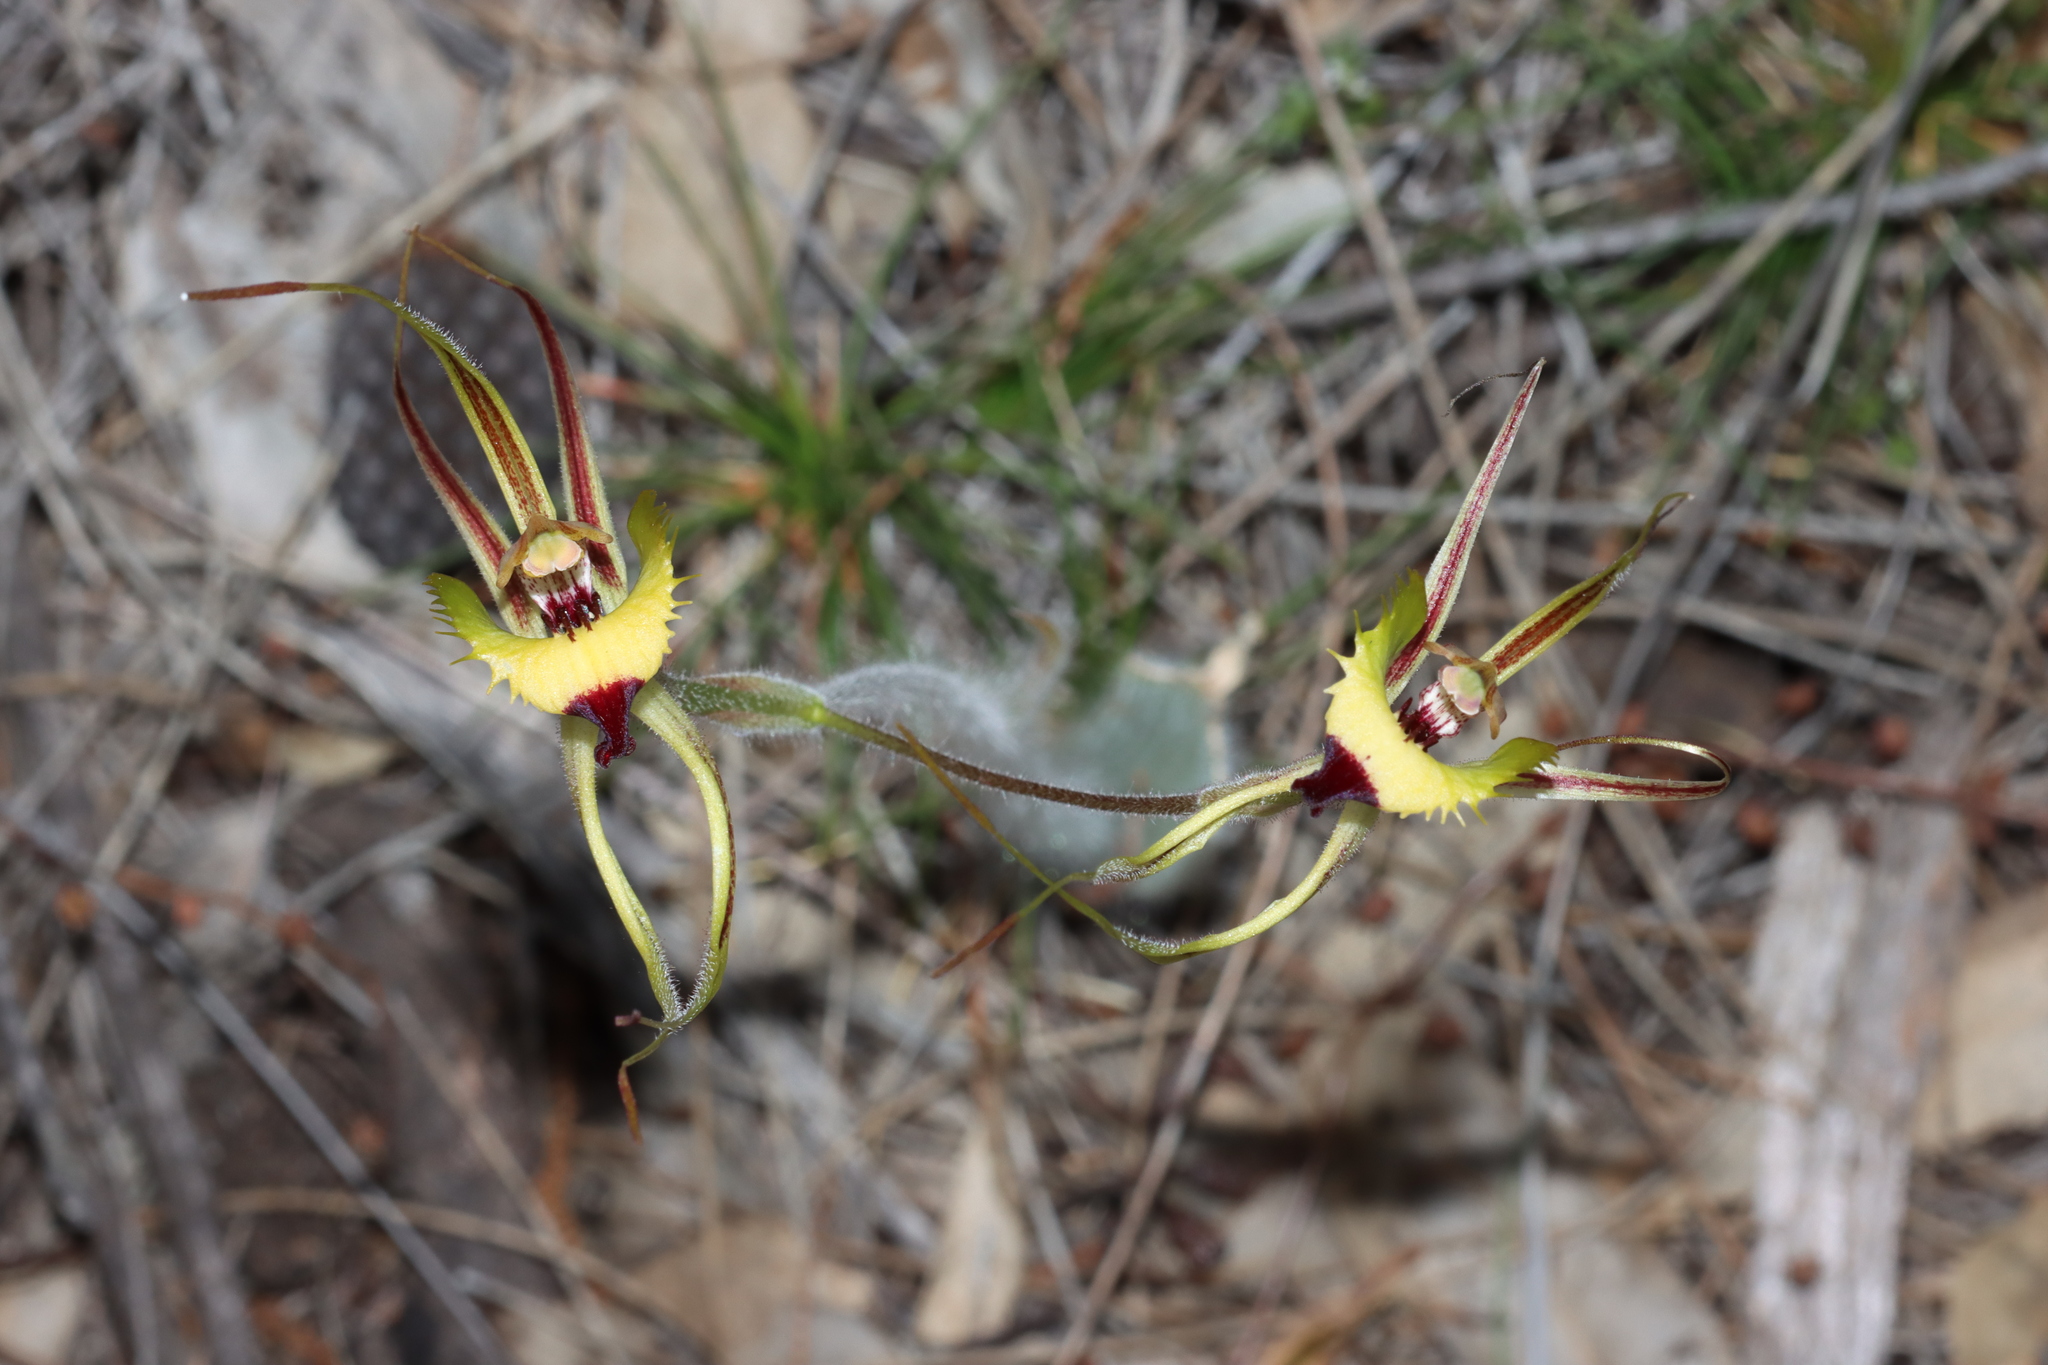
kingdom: Plantae
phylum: Tracheophyta
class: Liliopsida
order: Asparagales
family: Orchidaceae
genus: Caladenia
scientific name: Caladenia falcata
